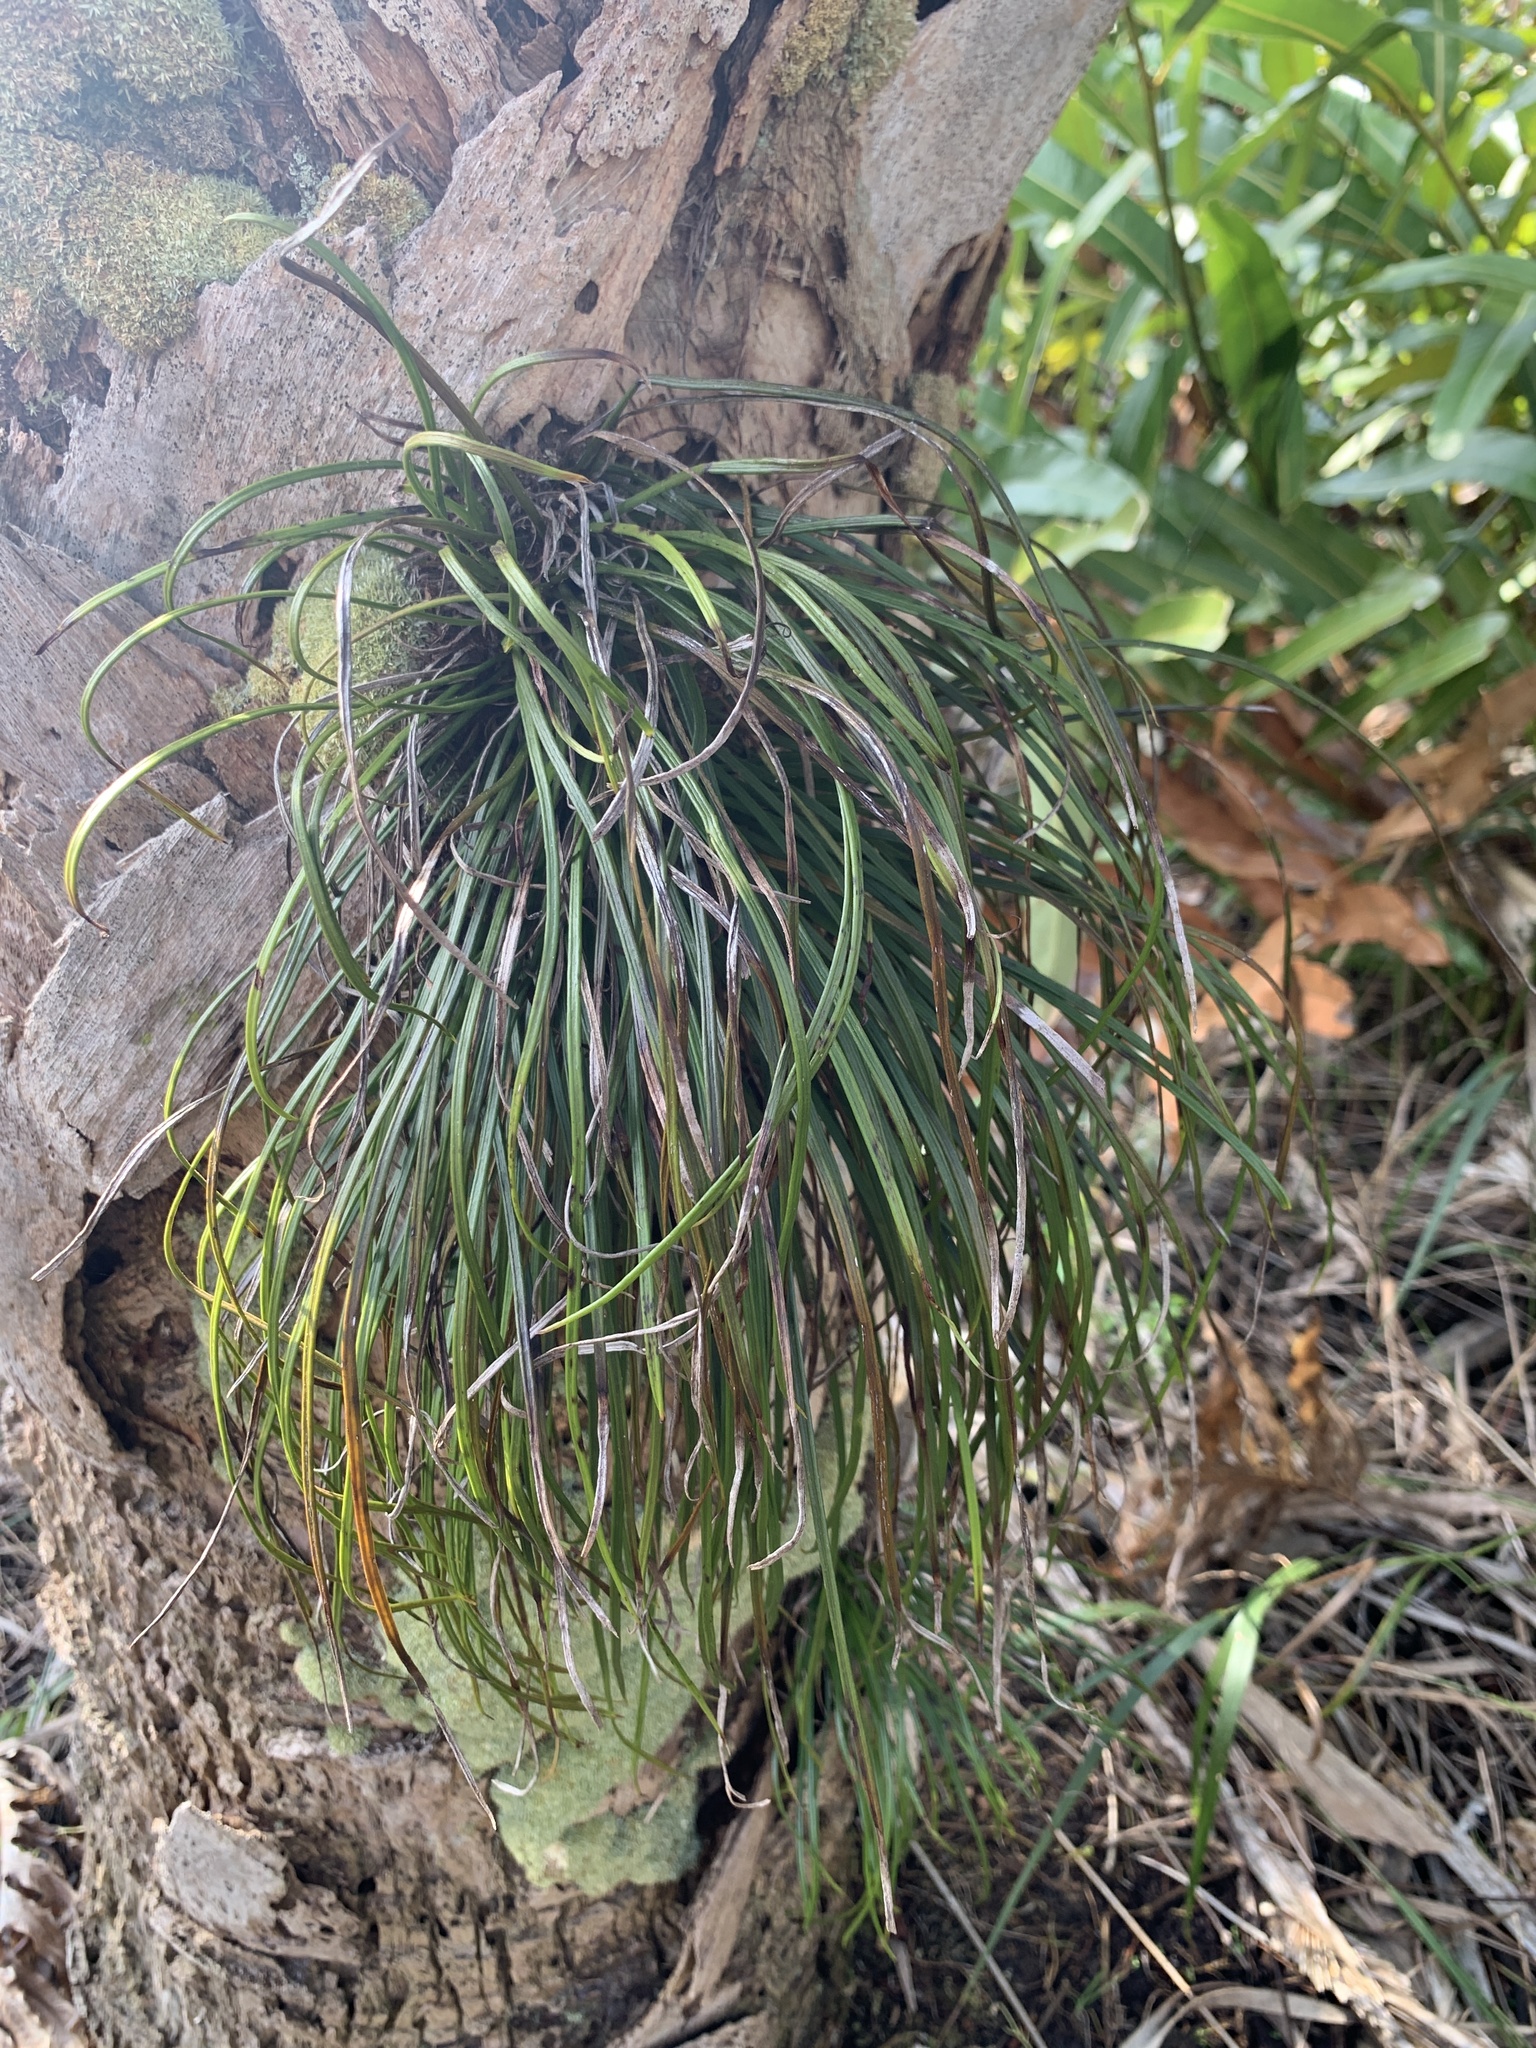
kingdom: Plantae
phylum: Tracheophyta
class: Polypodiopsida
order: Polypodiales
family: Pteridaceae
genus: Vittaria
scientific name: Vittaria lineata
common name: Shoestring fern
